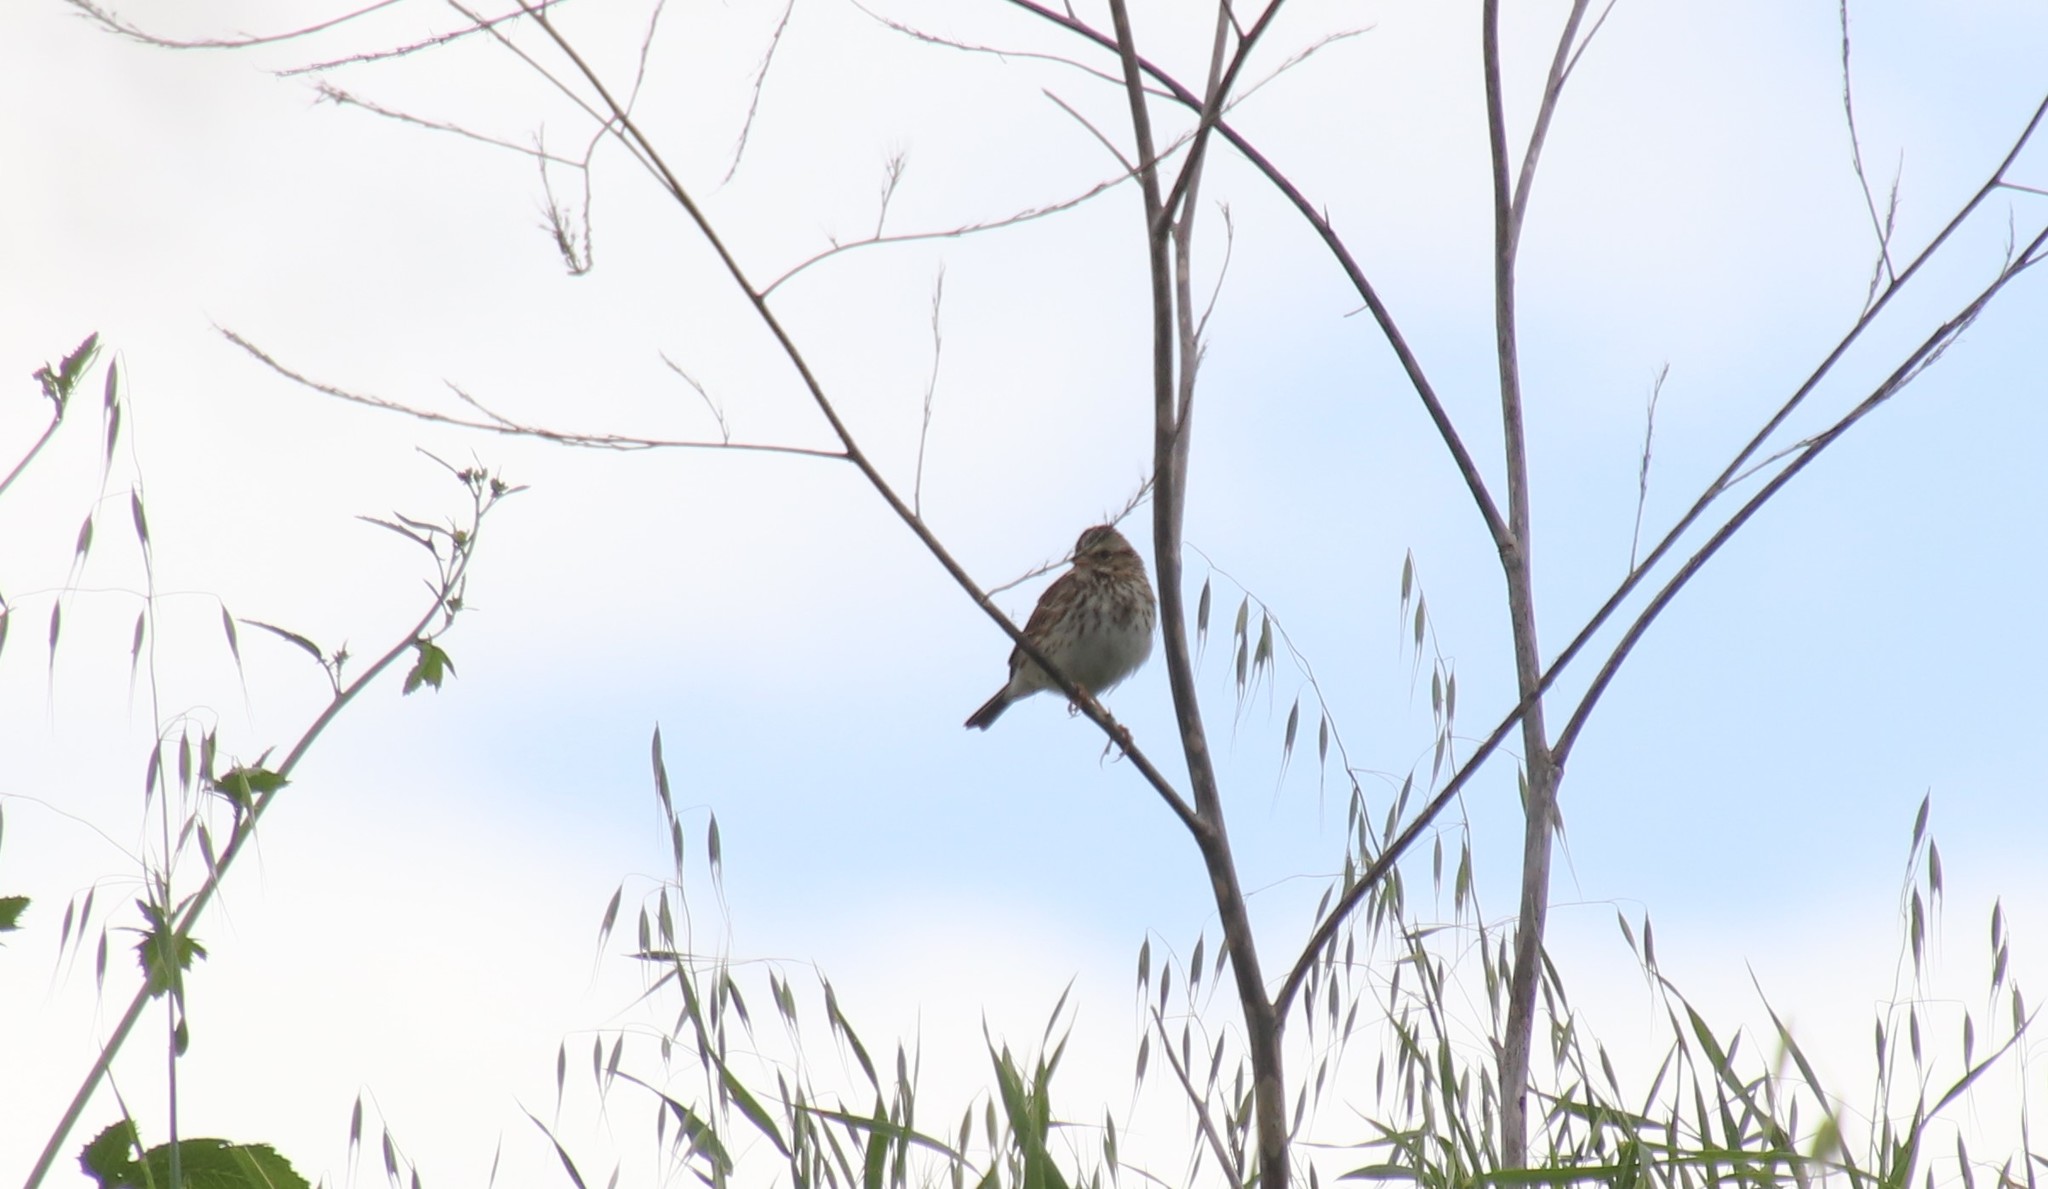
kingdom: Animalia
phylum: Chordata
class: Aves
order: Passeriformes
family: Passerellidae
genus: Passerculus
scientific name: Passerculus sandwichensis
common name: Savannah sparrow
